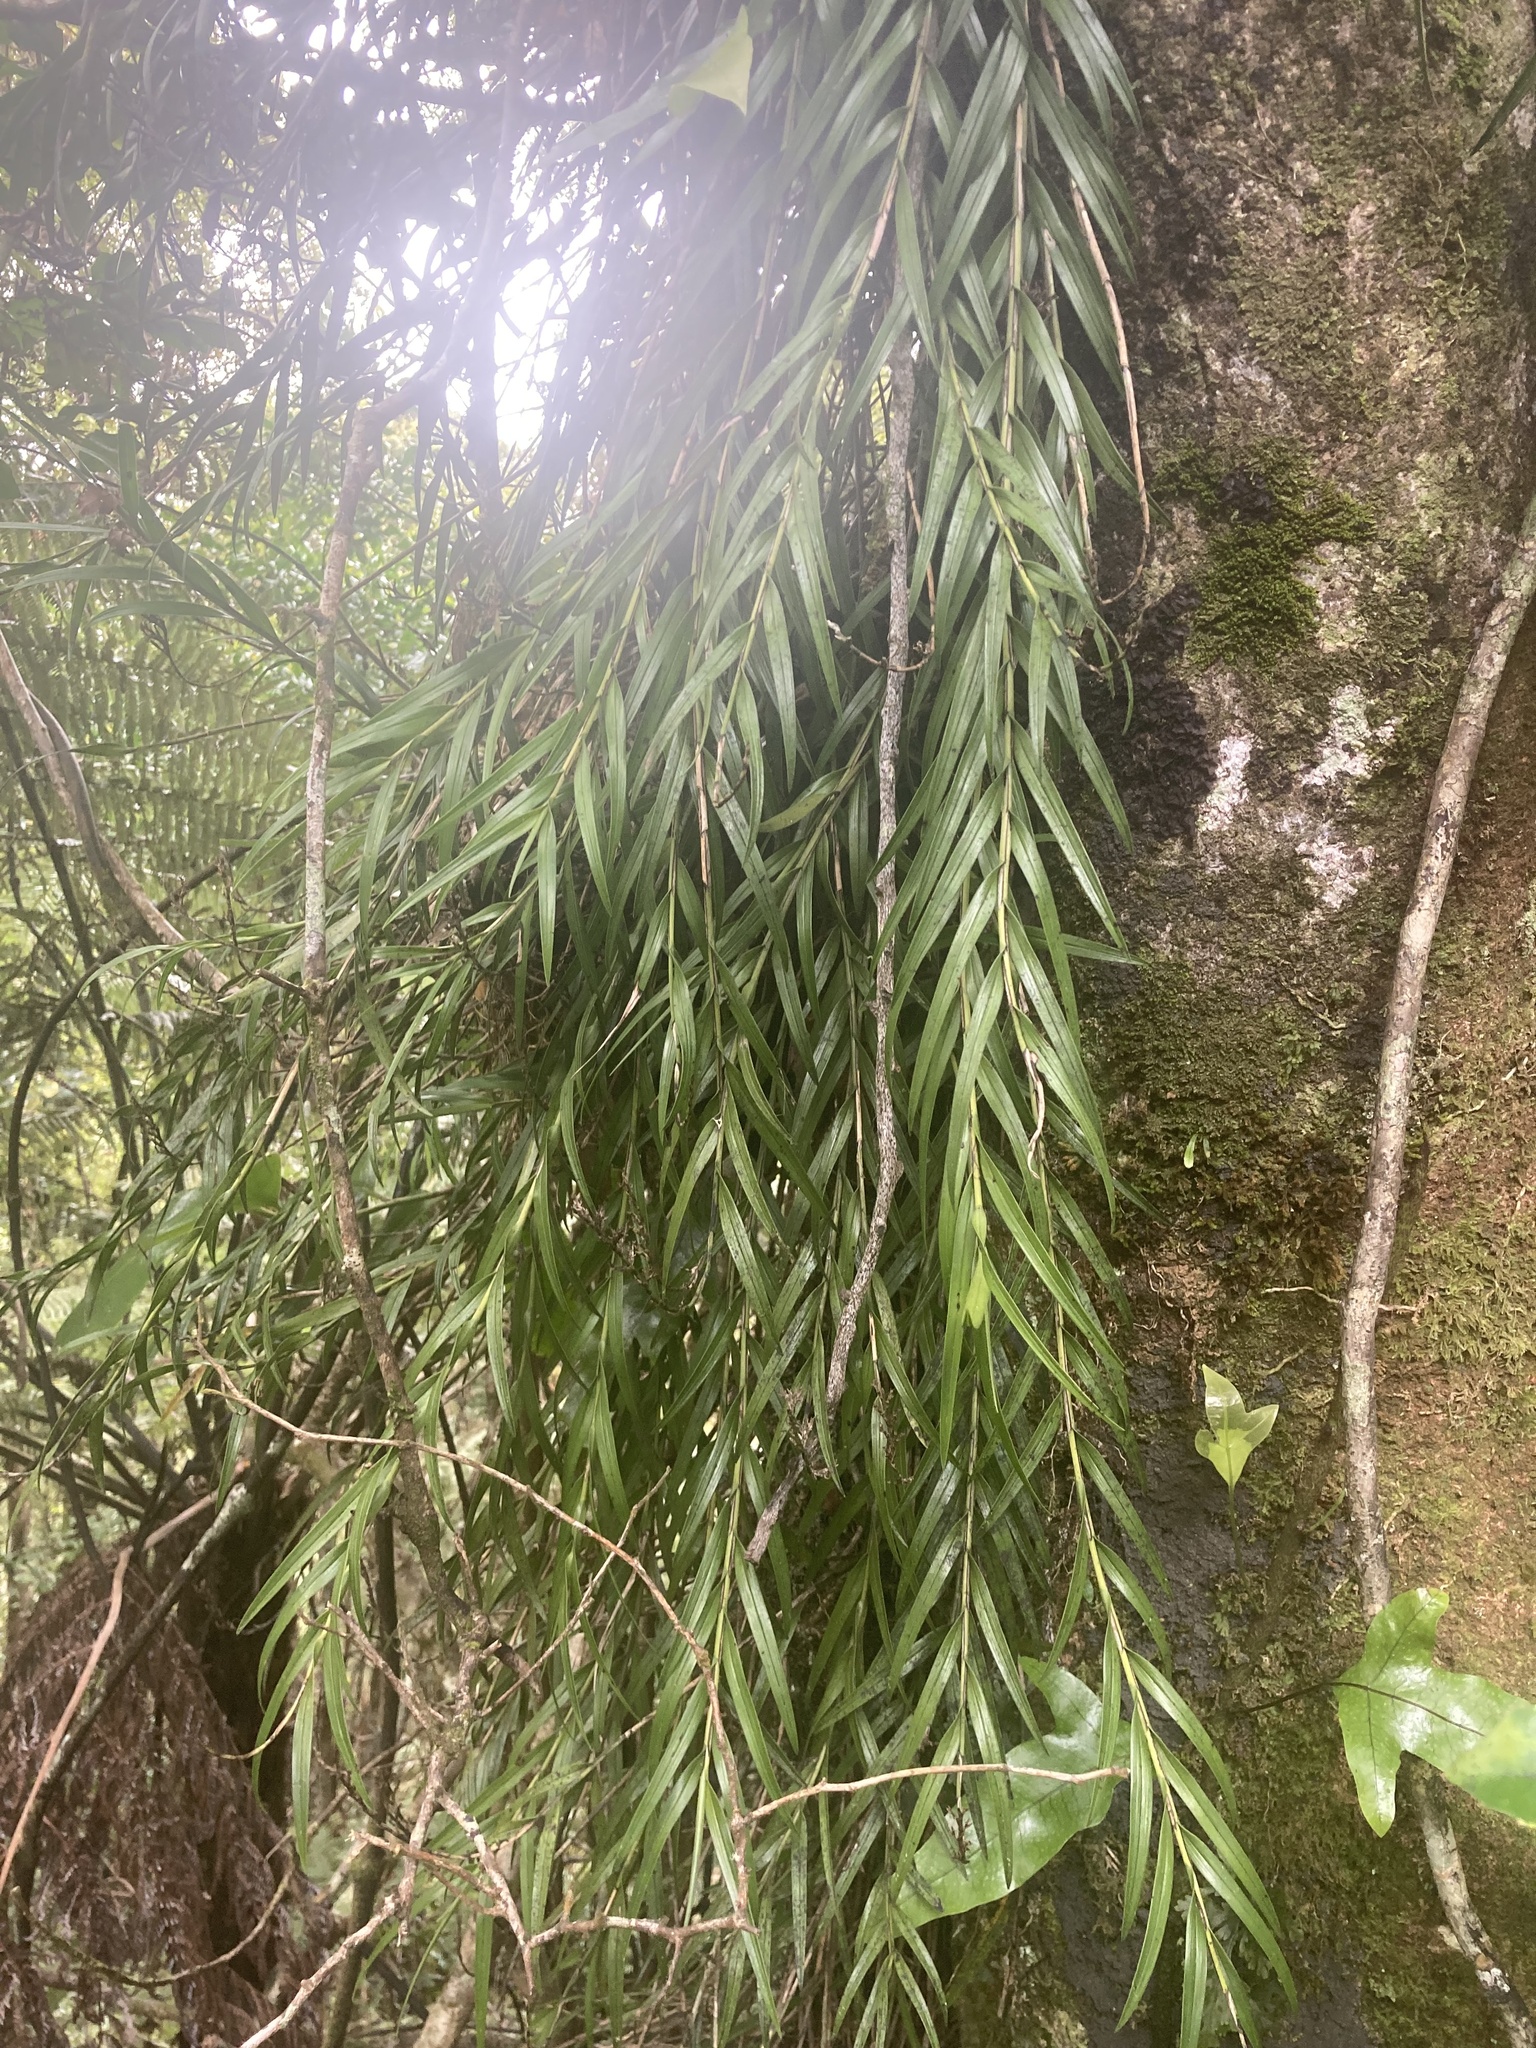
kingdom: Plantae
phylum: Tracheophyta
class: Liliopsida
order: Asparagales
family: Orchidaceae
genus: Earina
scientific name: Earina autumnalis
